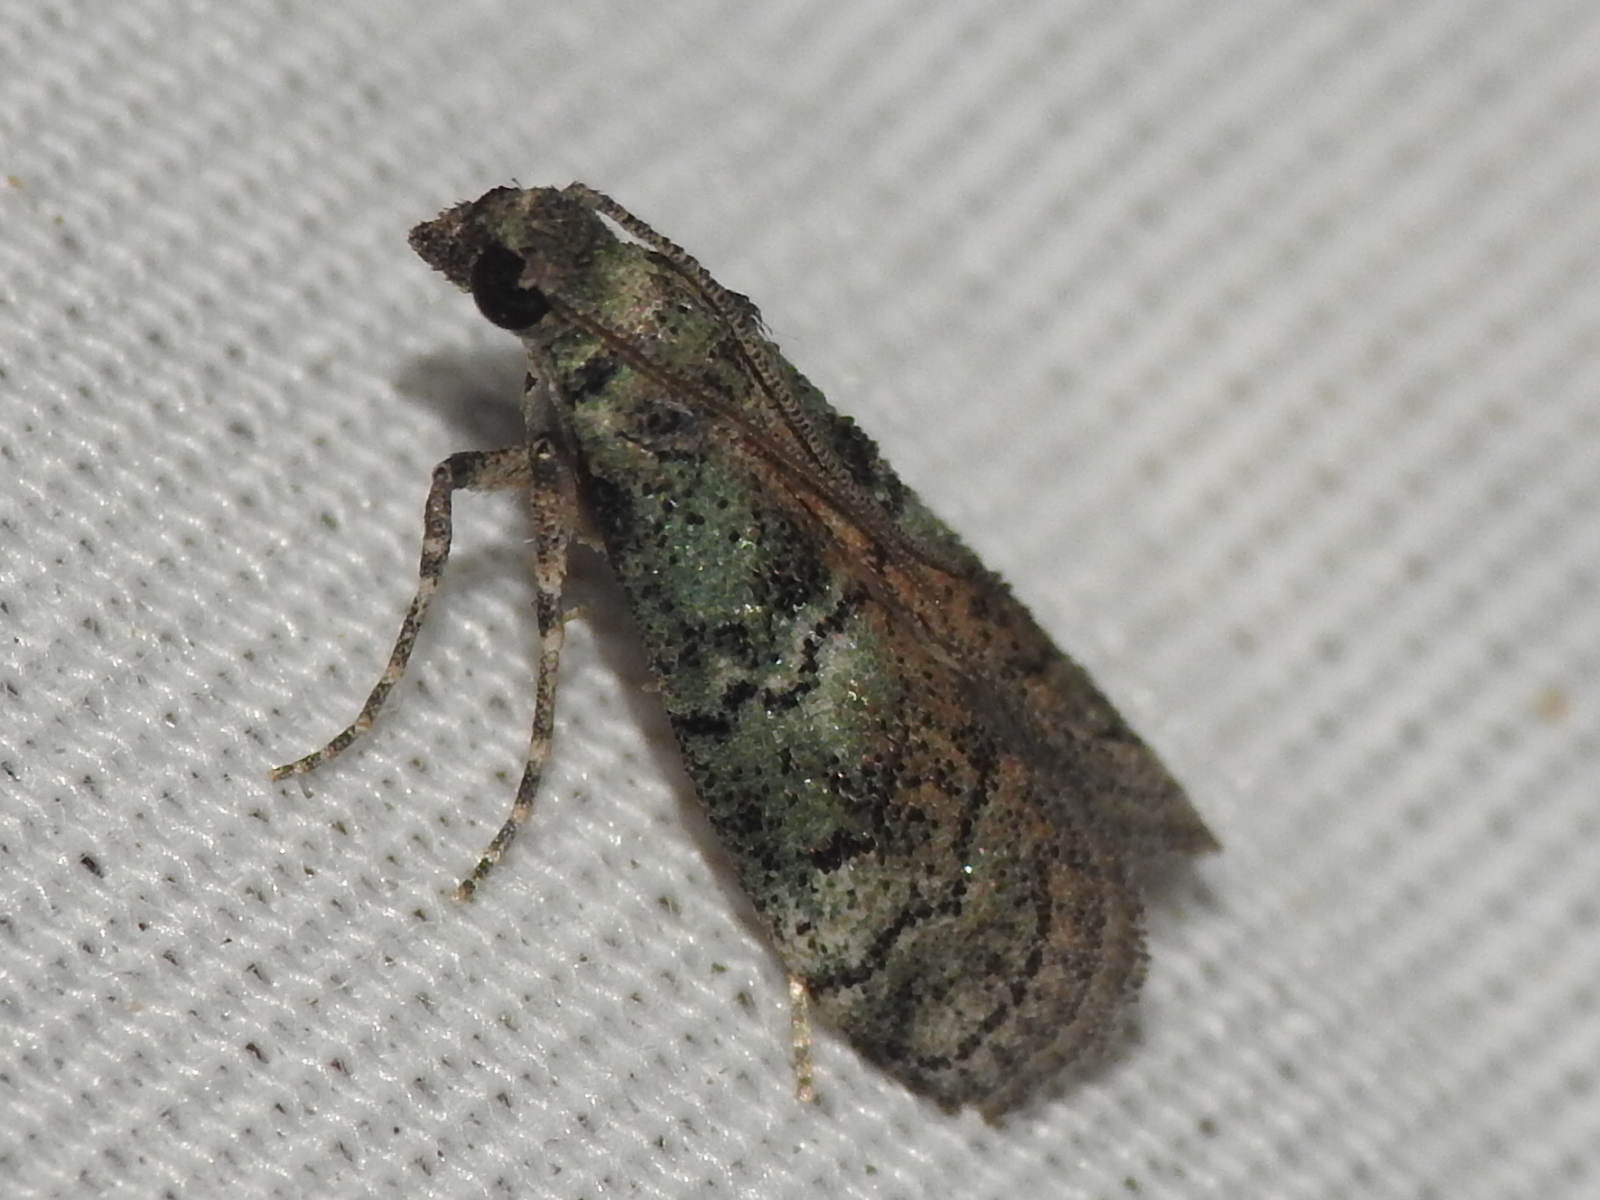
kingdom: Animalia
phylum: Arthropoda
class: Insecta
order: Lepidoptera
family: Pyralidae
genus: Cacotherapia
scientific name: Cacotherapia flexilinealis
